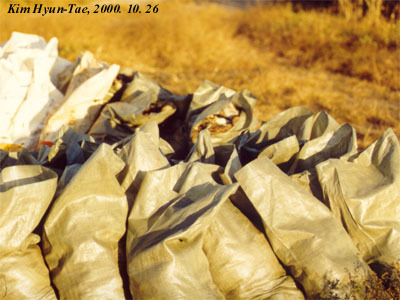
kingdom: Animalia
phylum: Chordata
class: Aves
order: Anseriformes
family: Anatidae
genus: Sibirionetta
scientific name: Sibirionetta formosa
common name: Baikal teal
